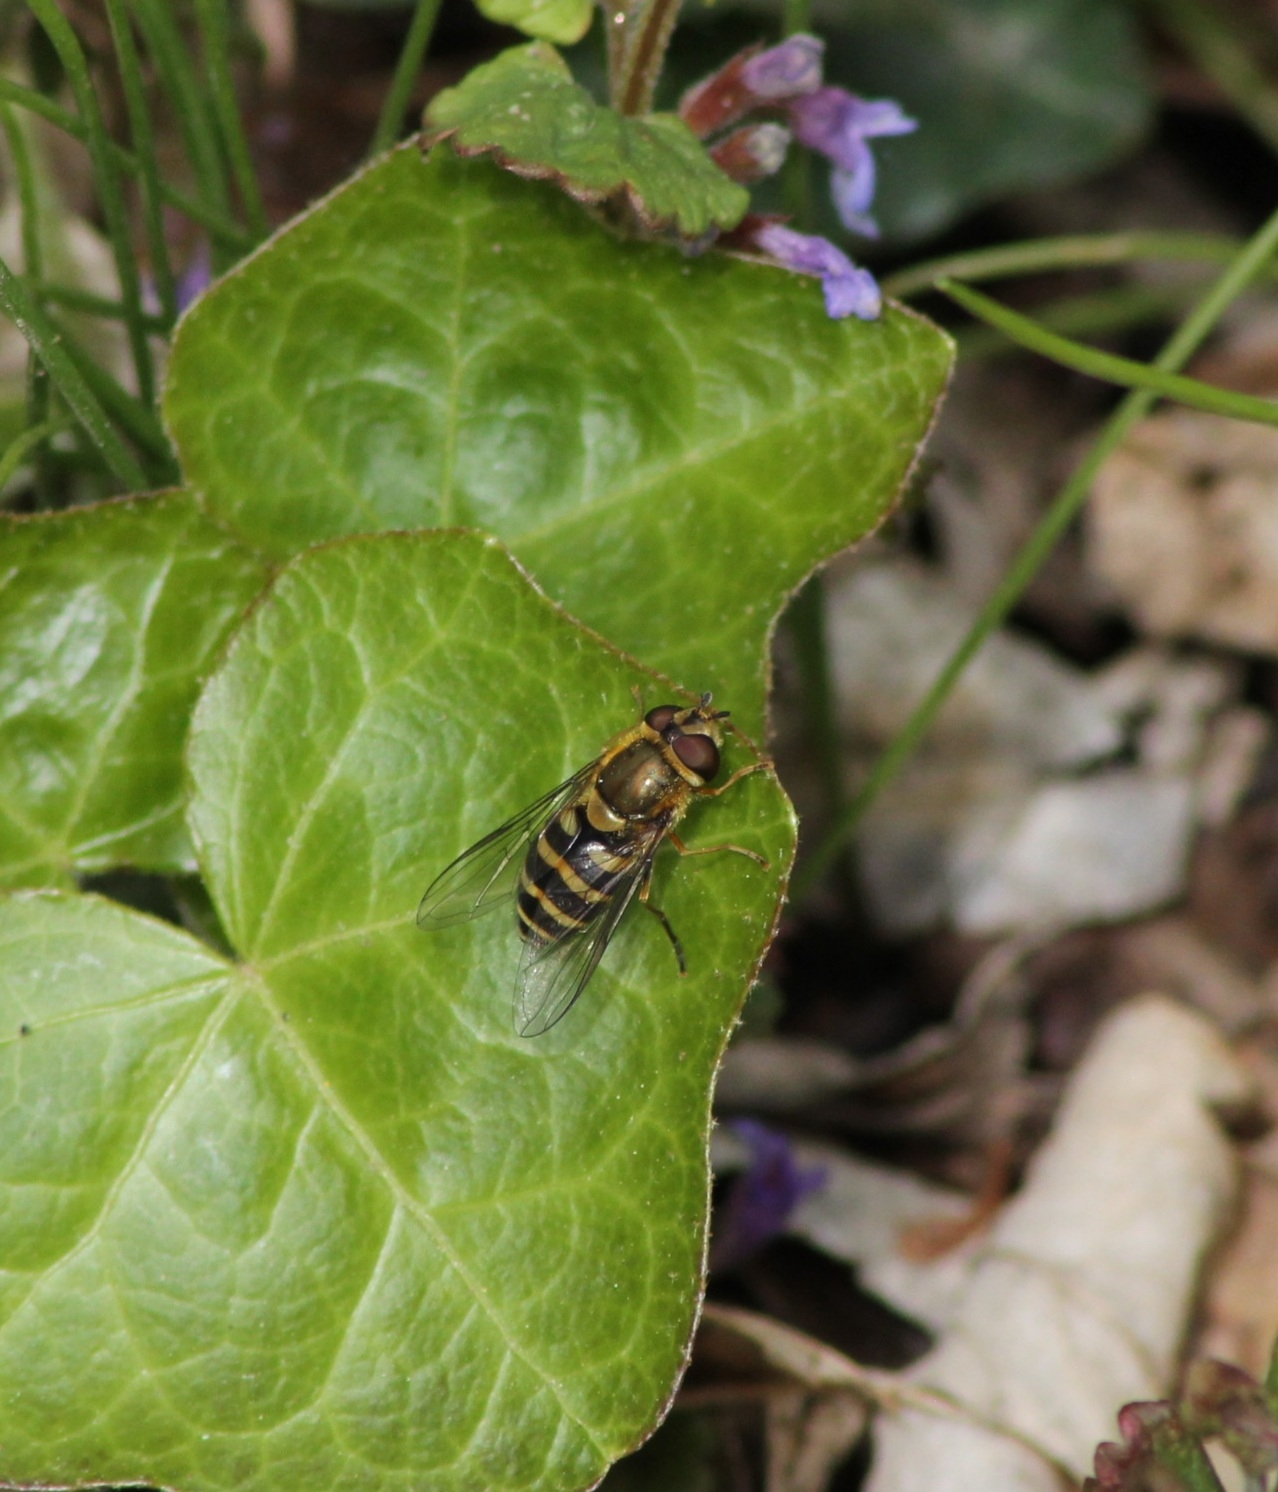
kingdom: Animalia
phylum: Arthropoda
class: Insecta
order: Diptera
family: Syrphidae
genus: Syrphus
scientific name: Syrphus
